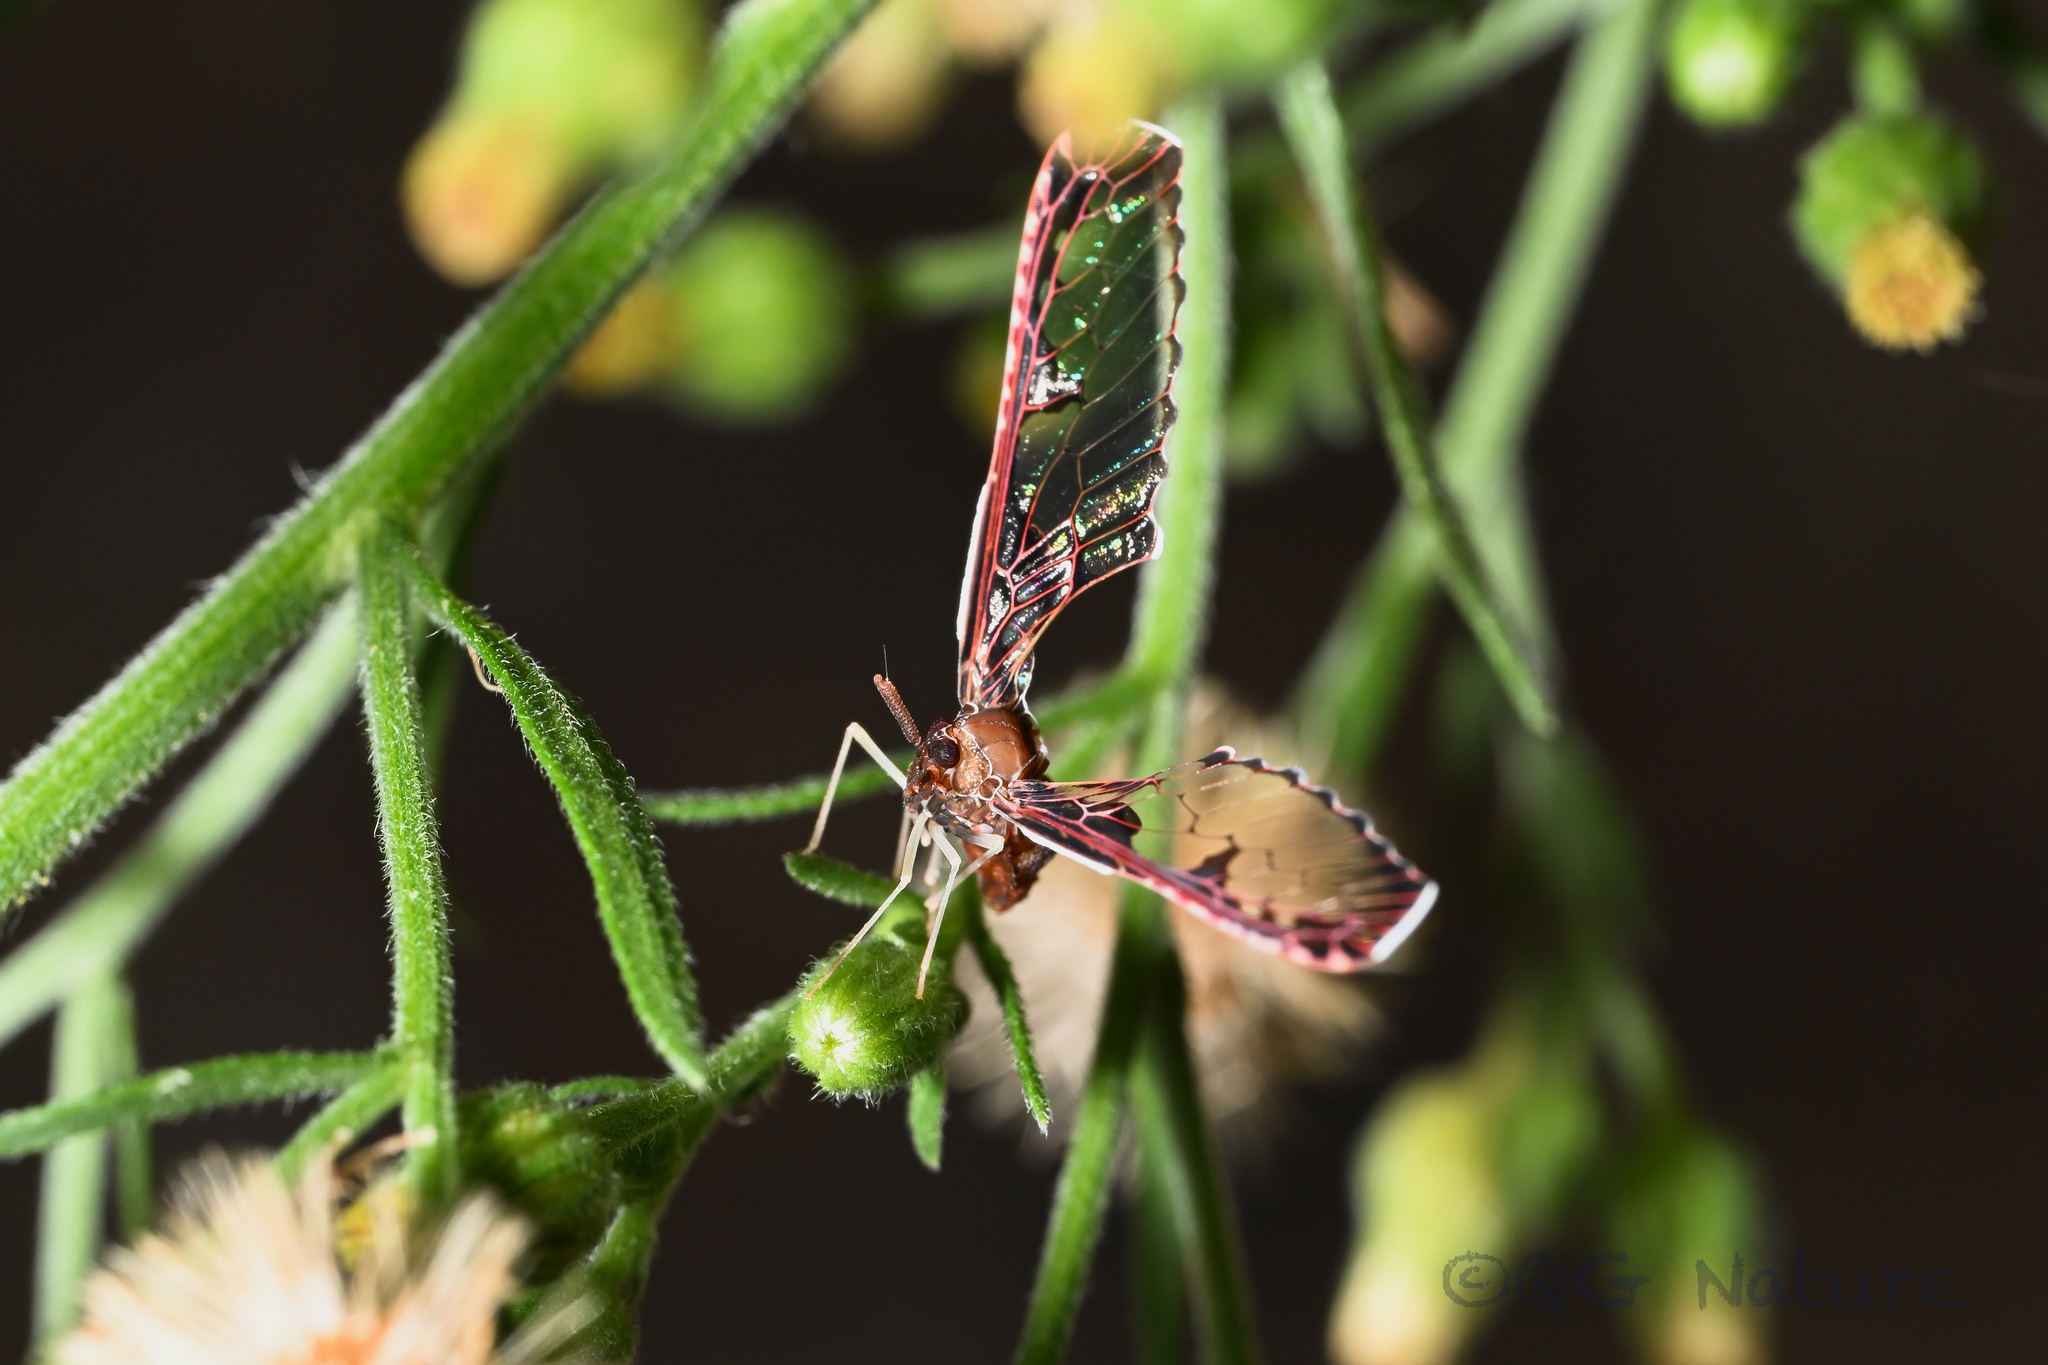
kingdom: Animalia
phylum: Arthropoda
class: Insecta
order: Hemiptera
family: Derbidae
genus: Losbanosia
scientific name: Losbanosia hibarensis
